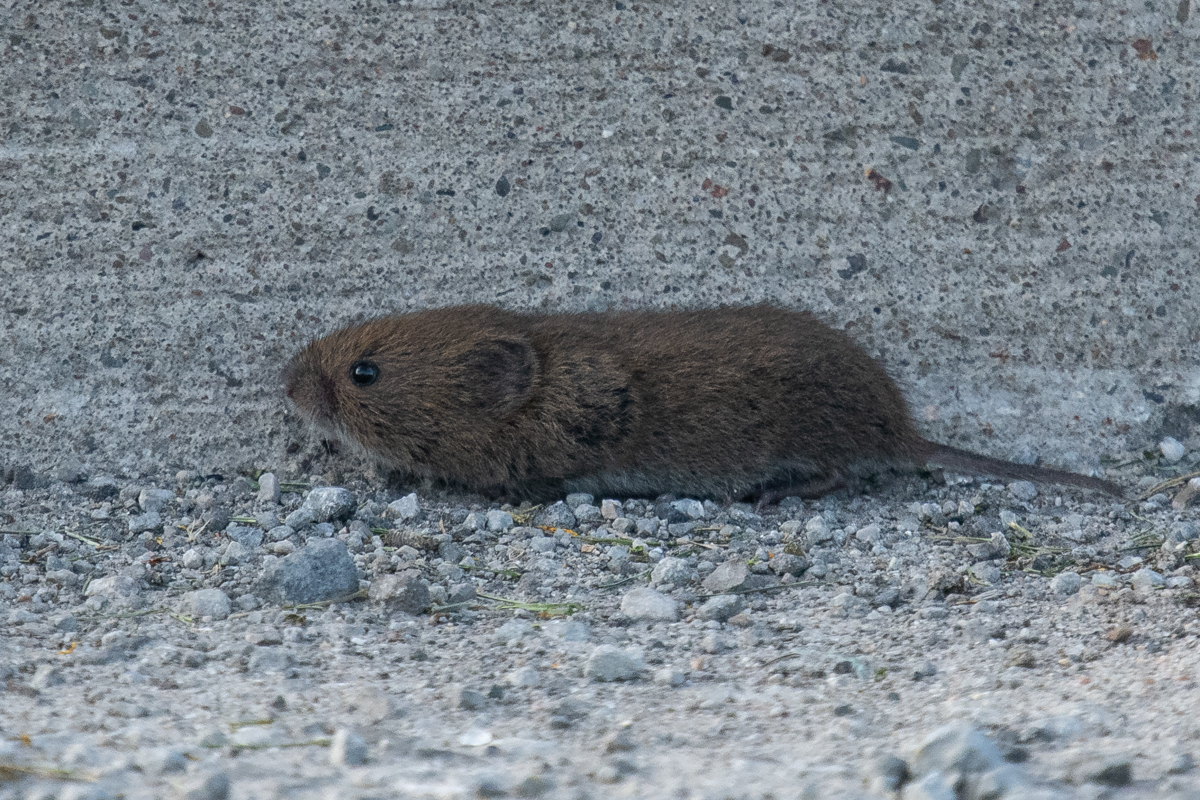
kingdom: Animalia
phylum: Chordata
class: Mammalia
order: Rodentia
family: Cricetidae
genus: Microtus
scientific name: Microtus pennsylvanicus
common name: Meadow vole
